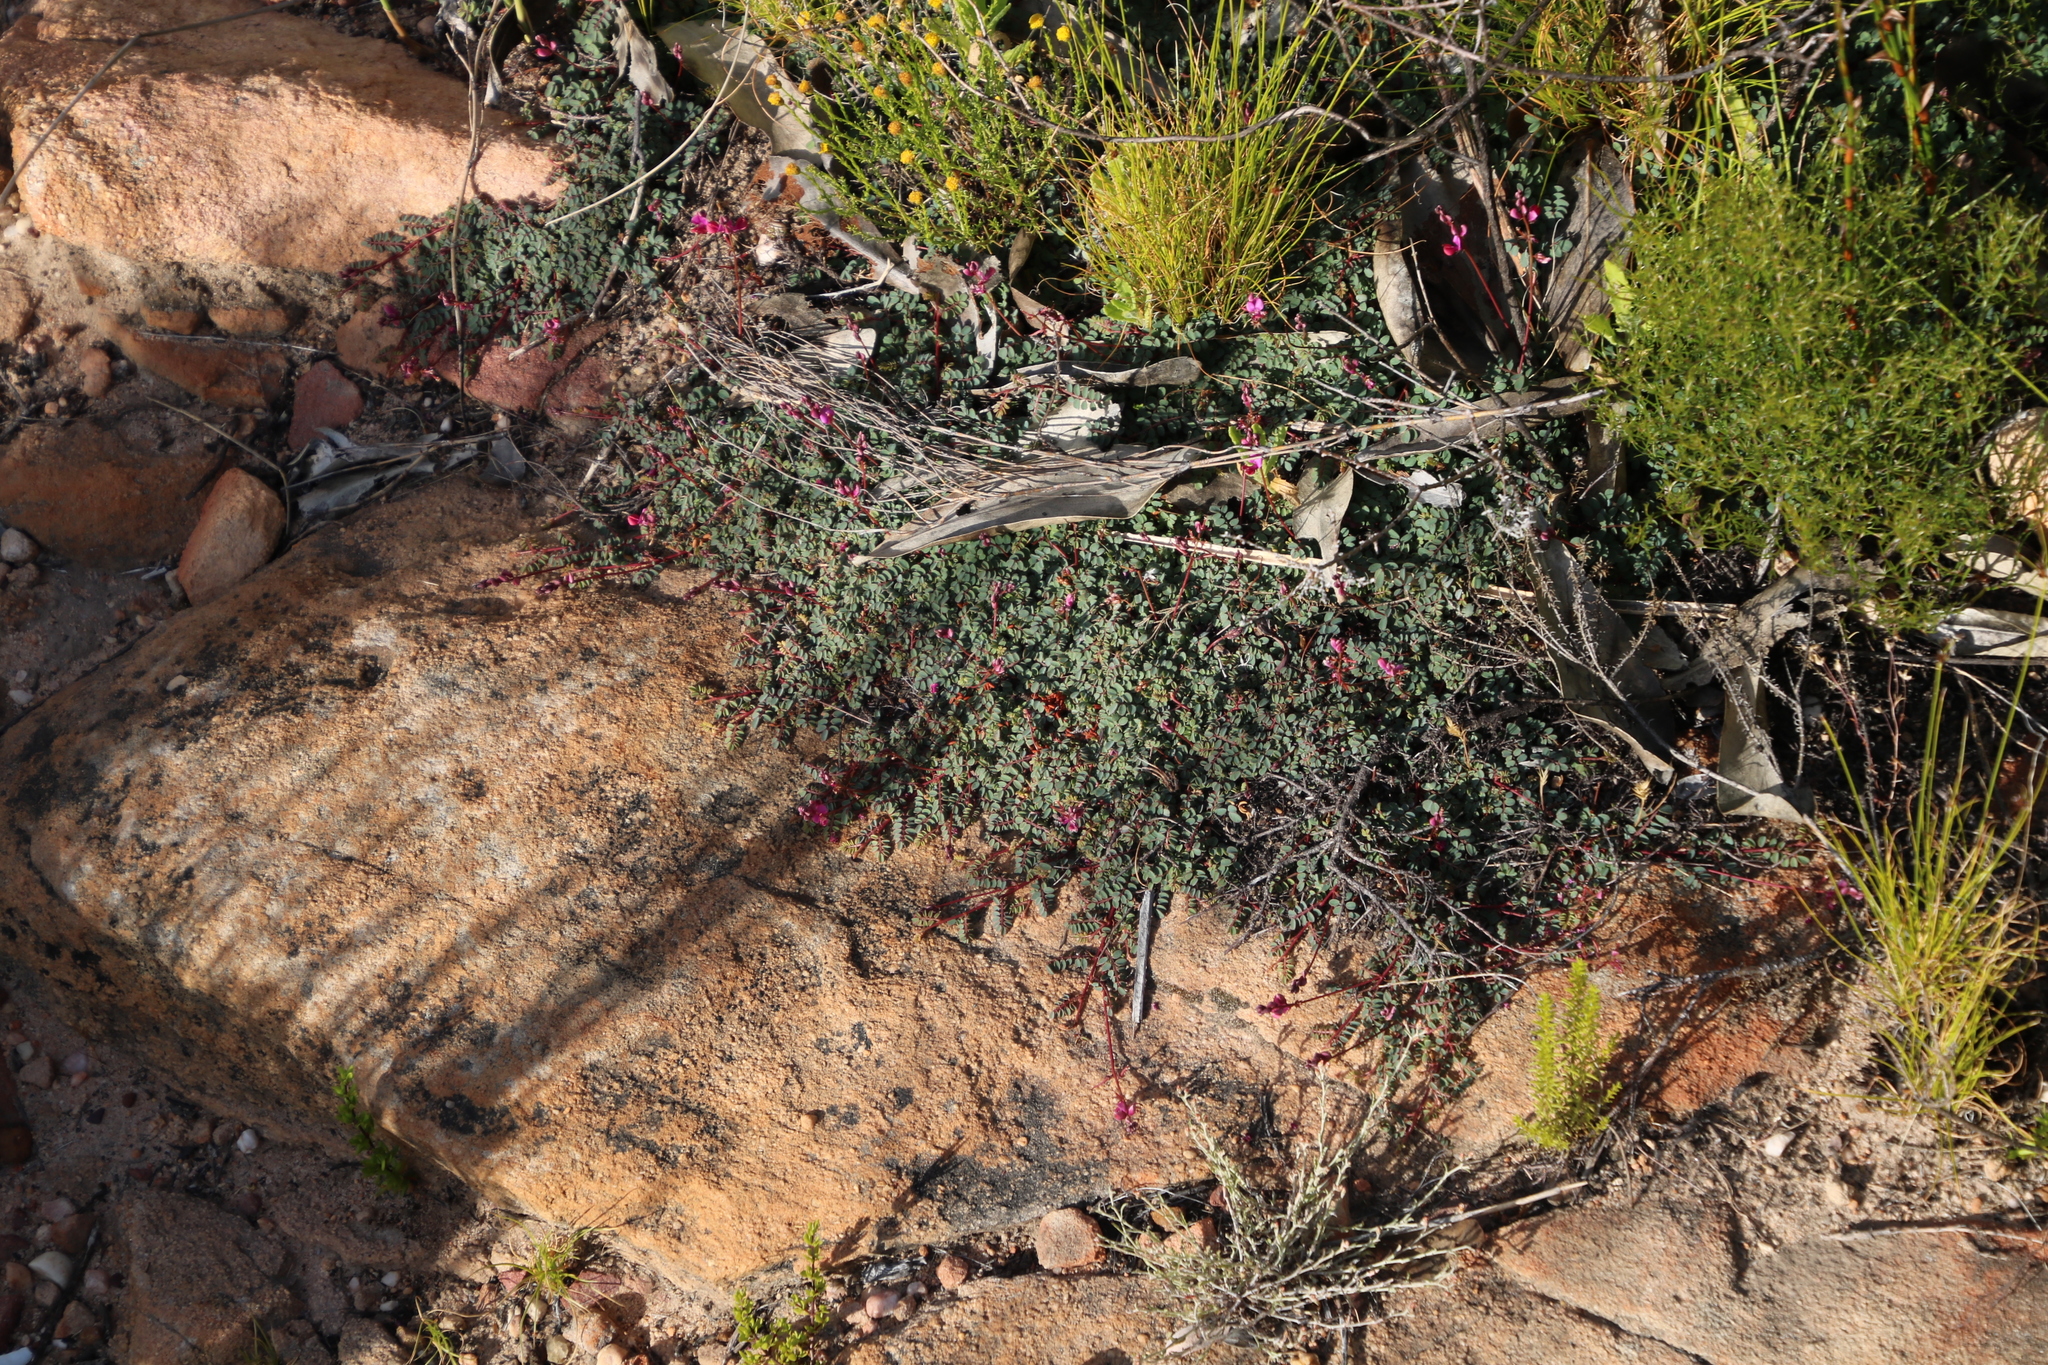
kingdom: Plantae
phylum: Tracheophyta
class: Magnoliopsida
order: Fabales
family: Fabaceae
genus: Indigofera
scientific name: Indigofera humifusa
